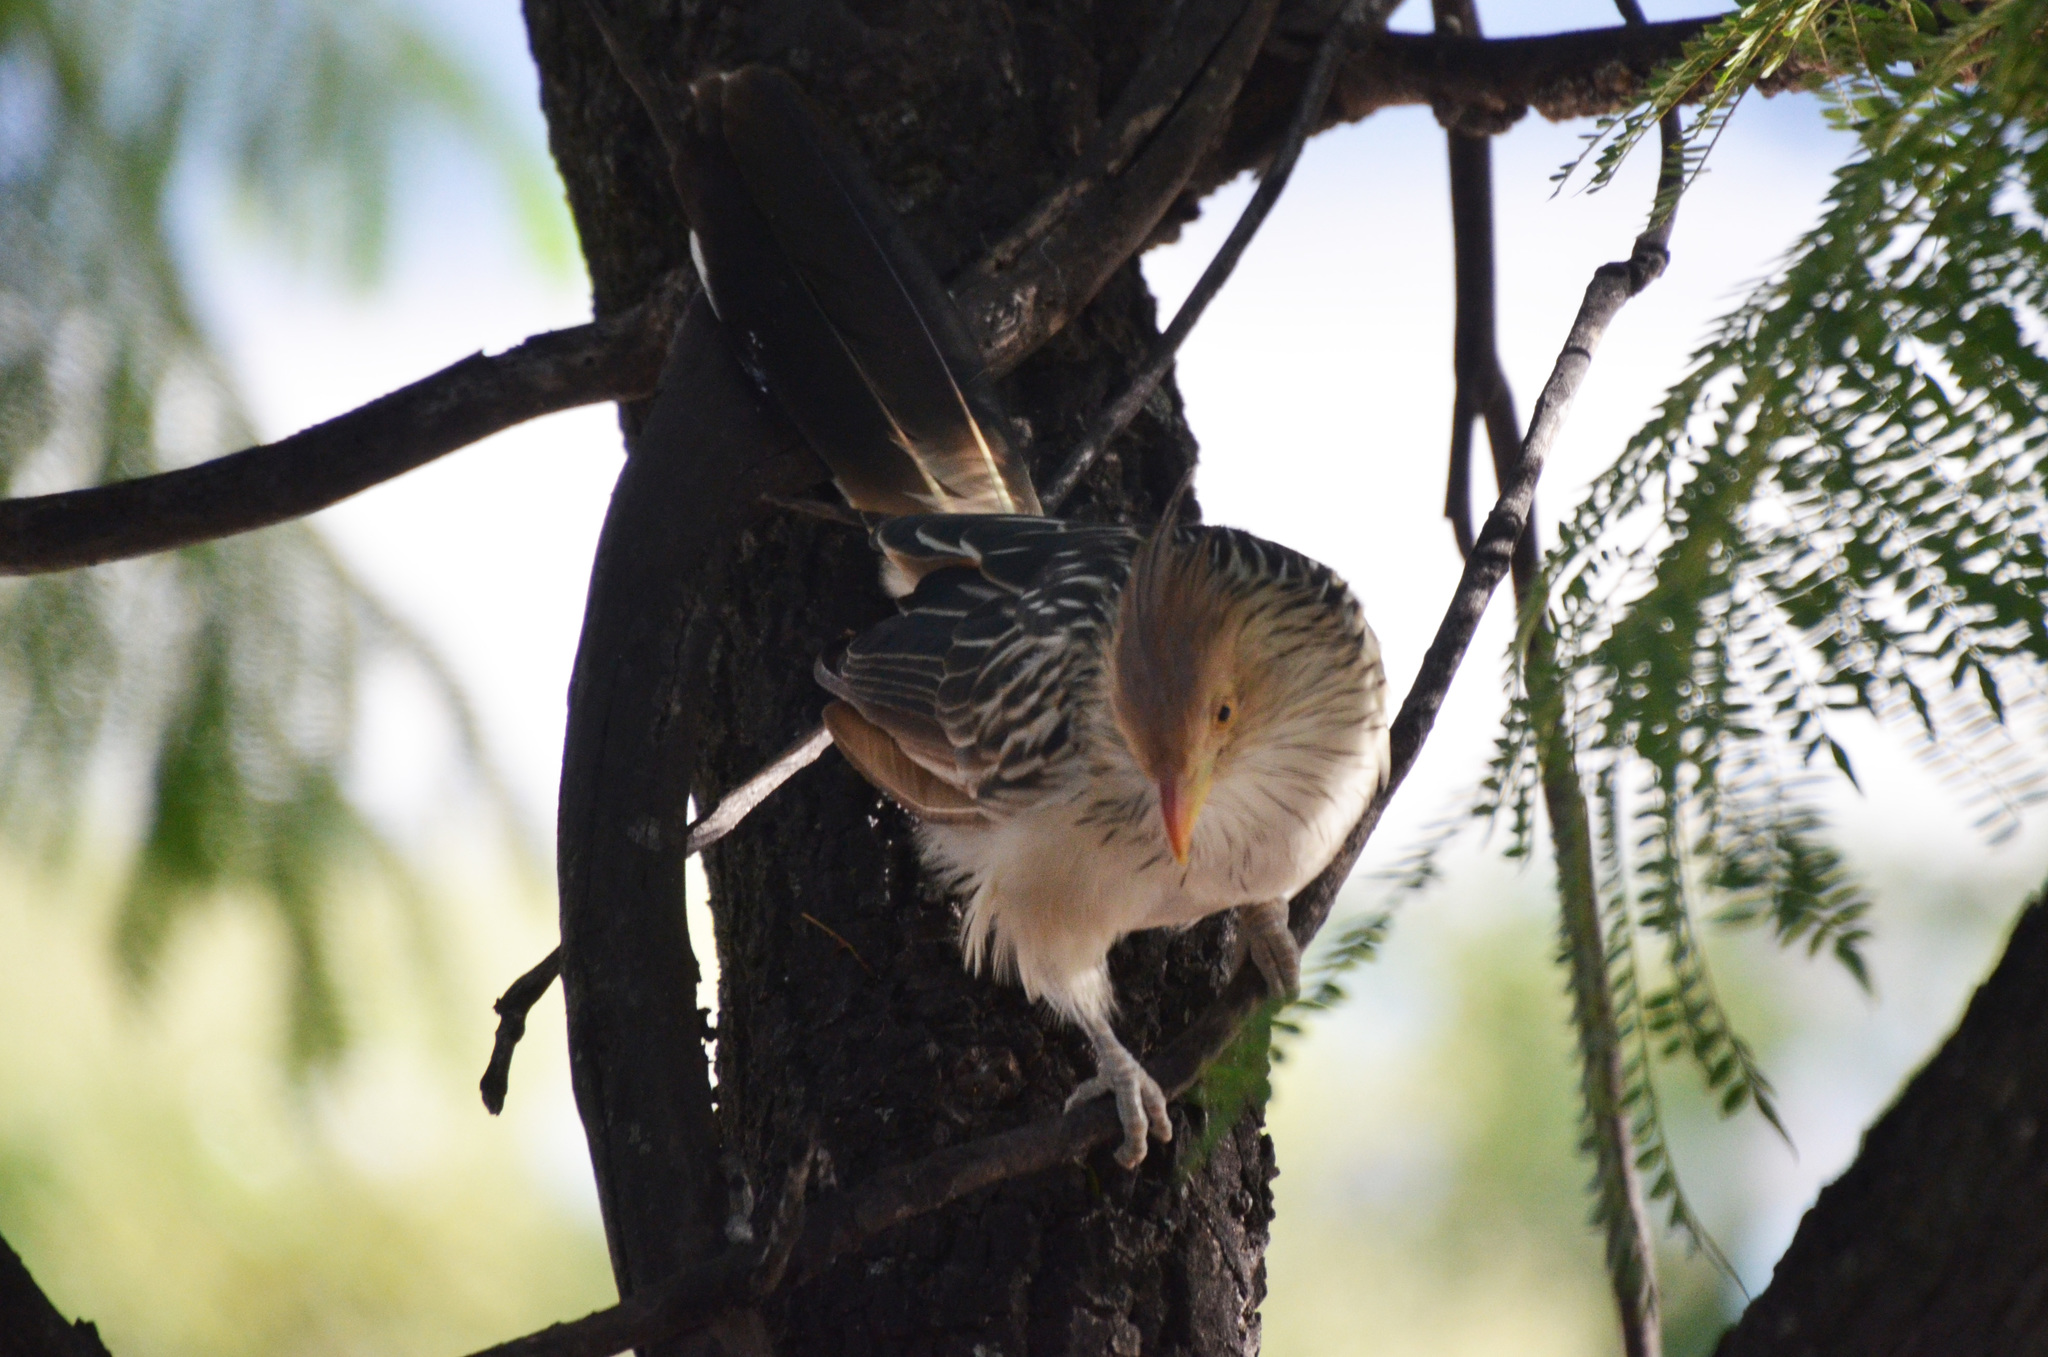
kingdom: Animalia
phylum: Chordata
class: Aves
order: Cuculiformes
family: Cuculidae
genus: Guira
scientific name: Guira guira
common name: Guira cuckoo
